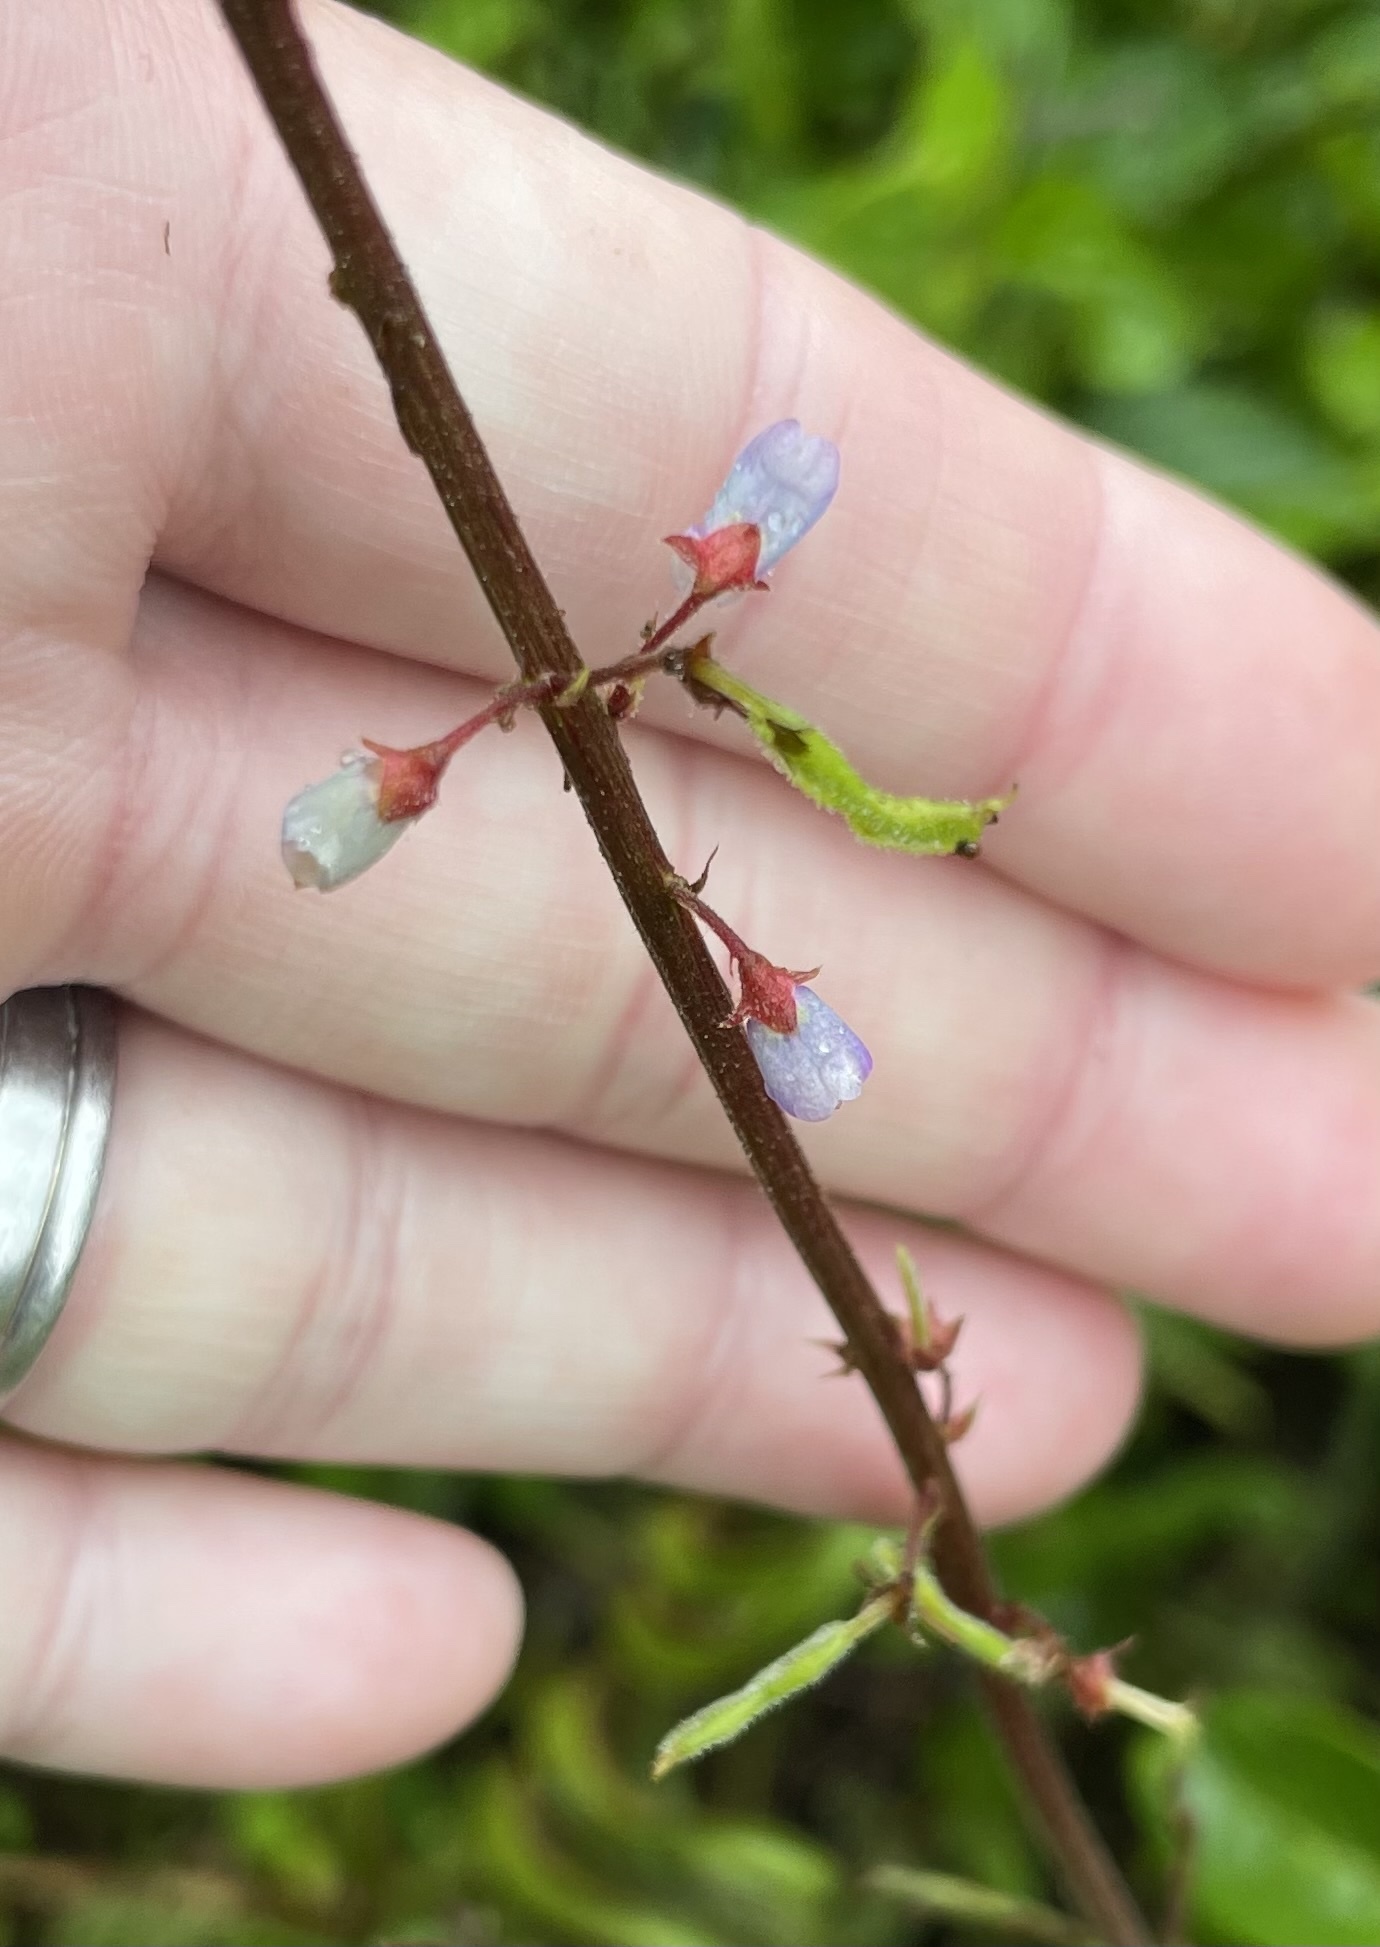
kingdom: Plantae
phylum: Tracheophyta
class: Magnoliopsida
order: Fabales
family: Fabaceae
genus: Desmodium
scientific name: Desmodium incanum
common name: Tickclover
